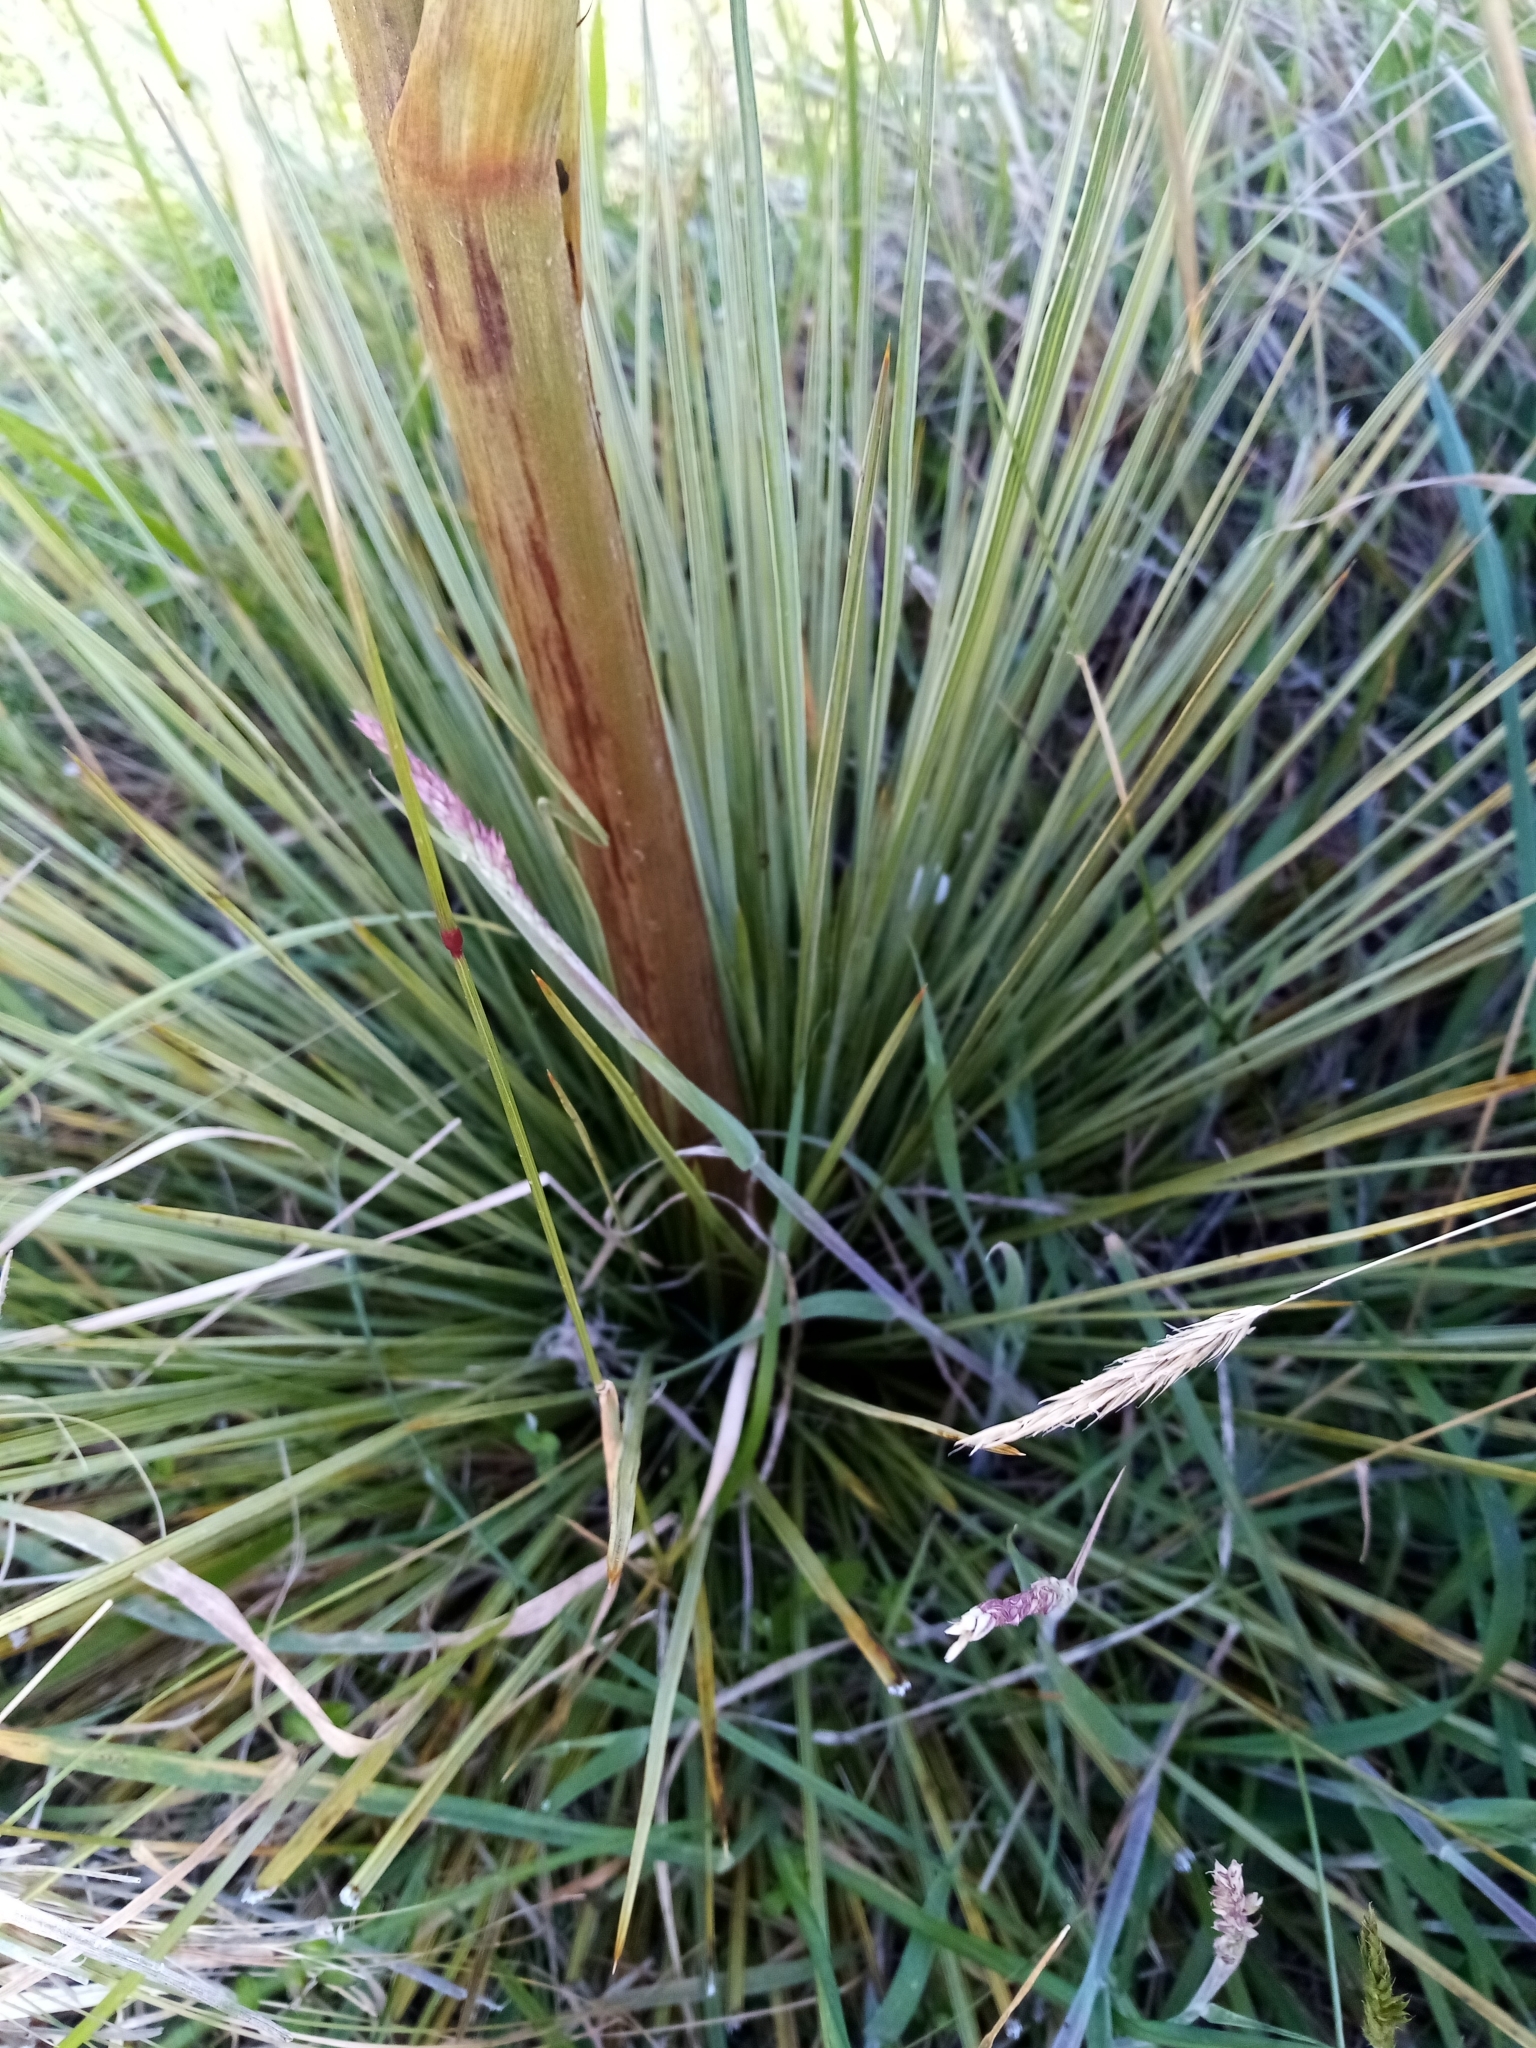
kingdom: Plantae
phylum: Tracheophyta
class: Magnoliopsida
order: Apiales
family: Apiaceae
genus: Aciphylla
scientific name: Aciphylla subflabellata
